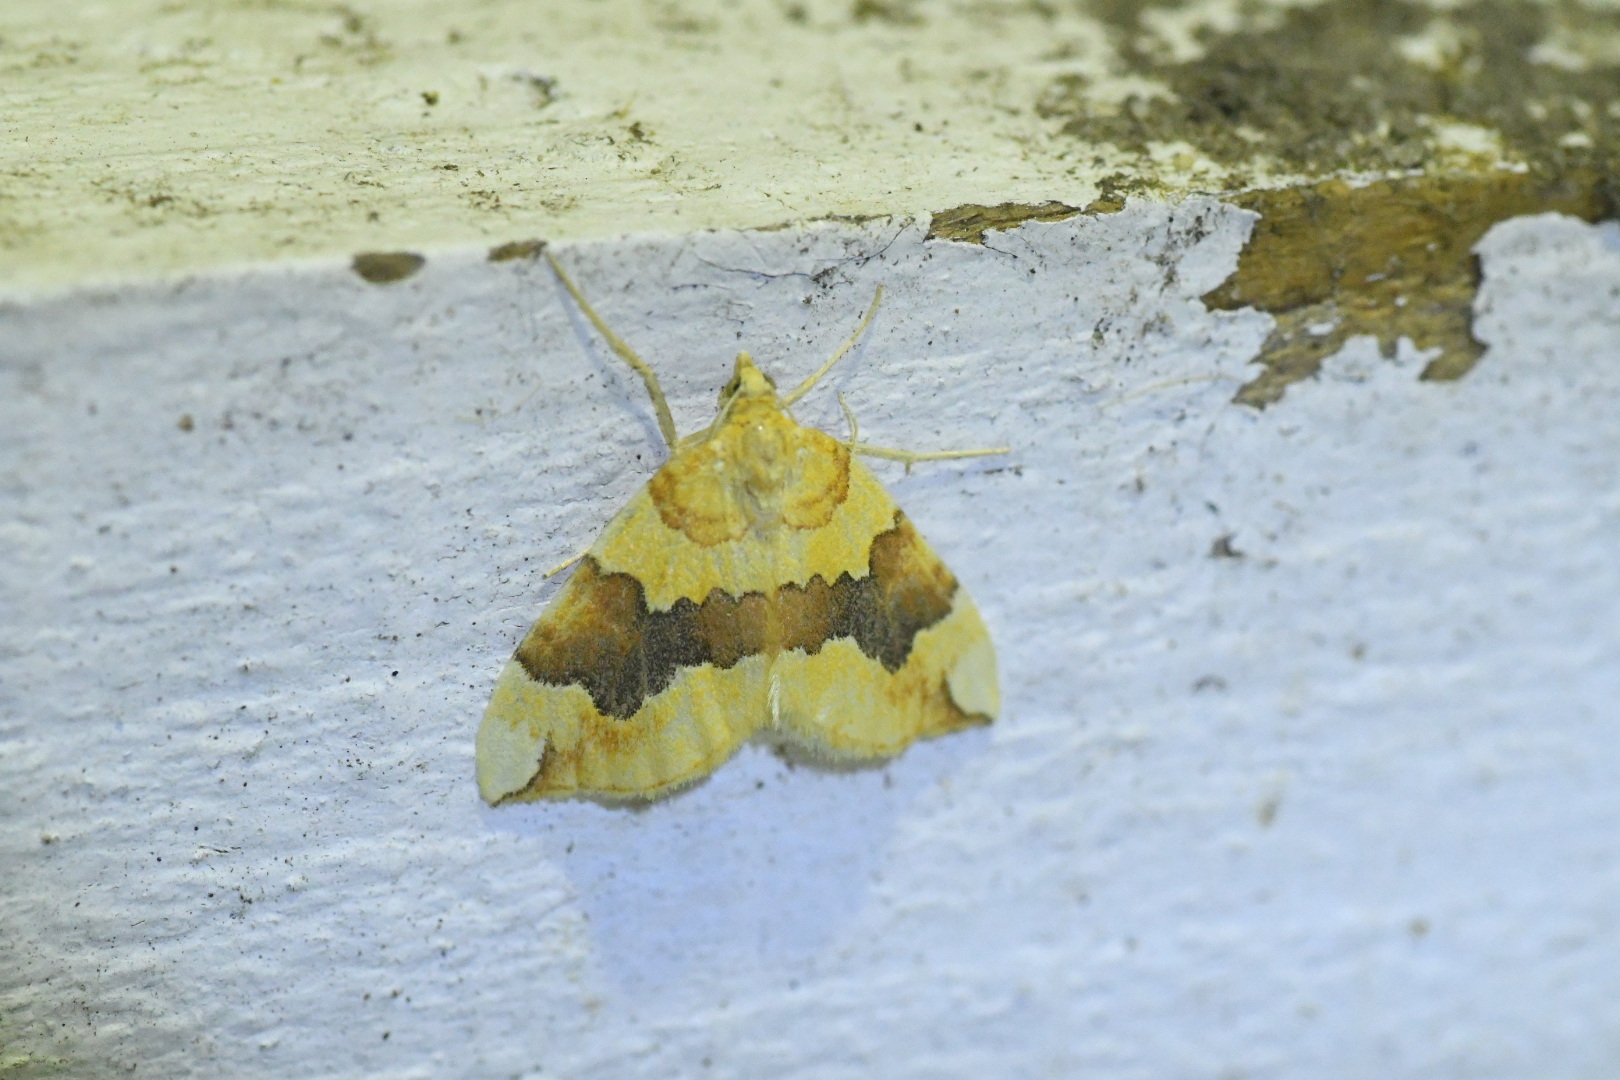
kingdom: Animalia
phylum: Arthropoda
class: Insecta
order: Lepidoptera
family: Geometridae
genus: Cidaria
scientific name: Cidaria fulvata
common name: Barred yellow
